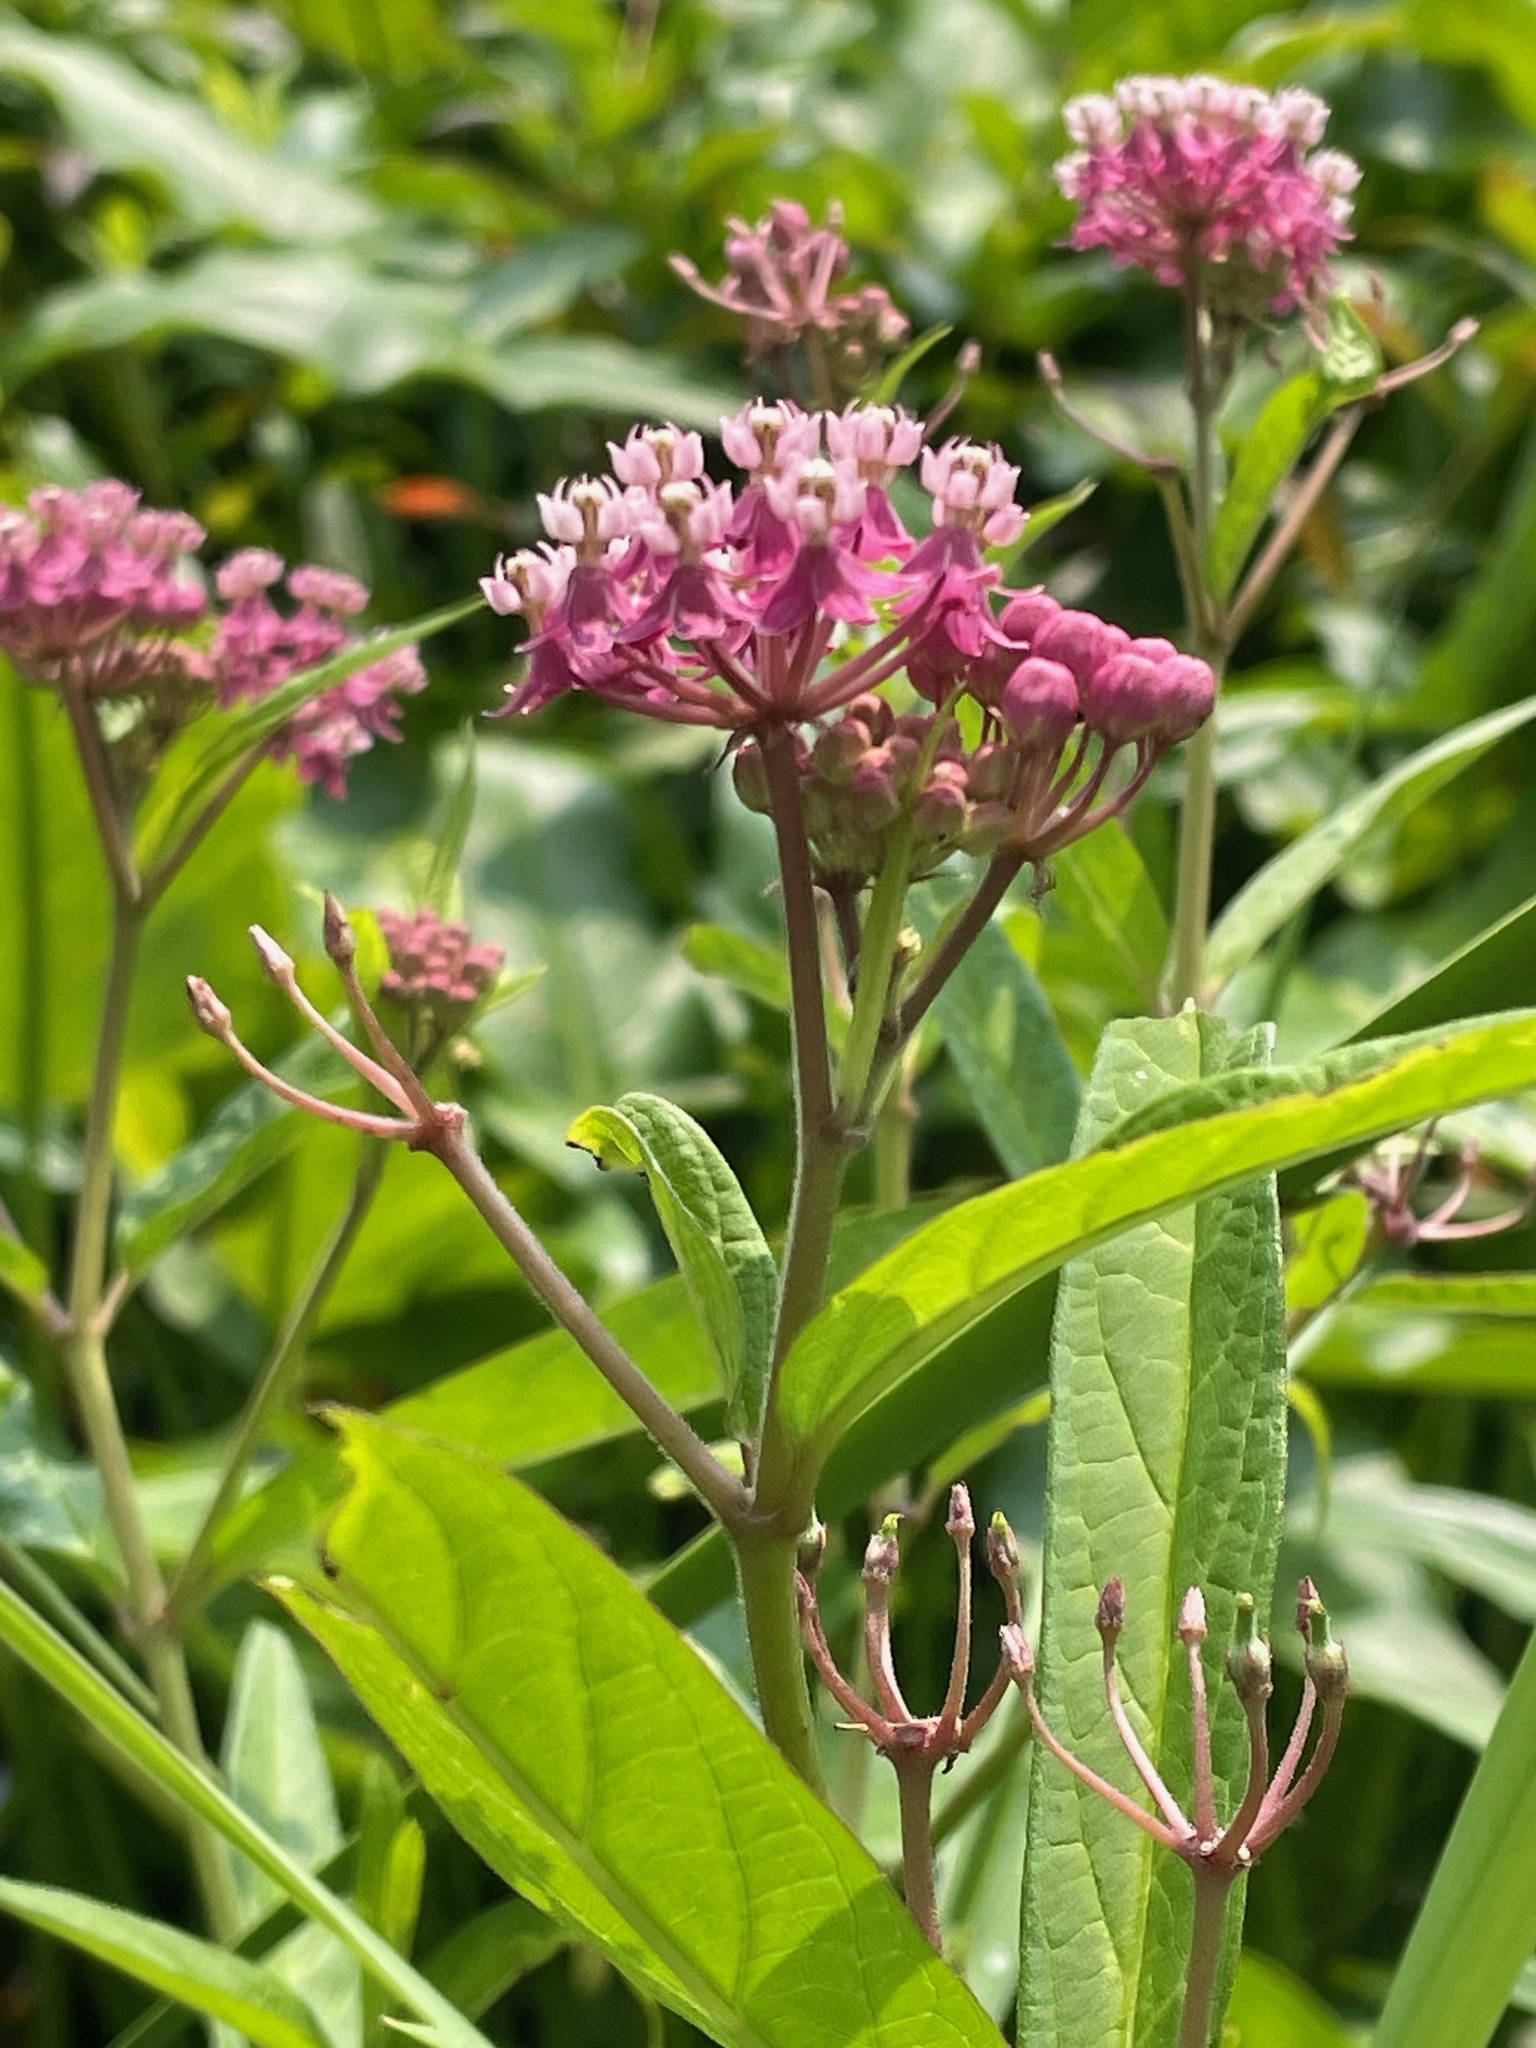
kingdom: Plantae
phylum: Tracheophyta
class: Magnoliopsida
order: Gentianales
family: Apocynaceae
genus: Asclepias
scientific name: Asclepias incarnata
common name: Swamp milkweed
